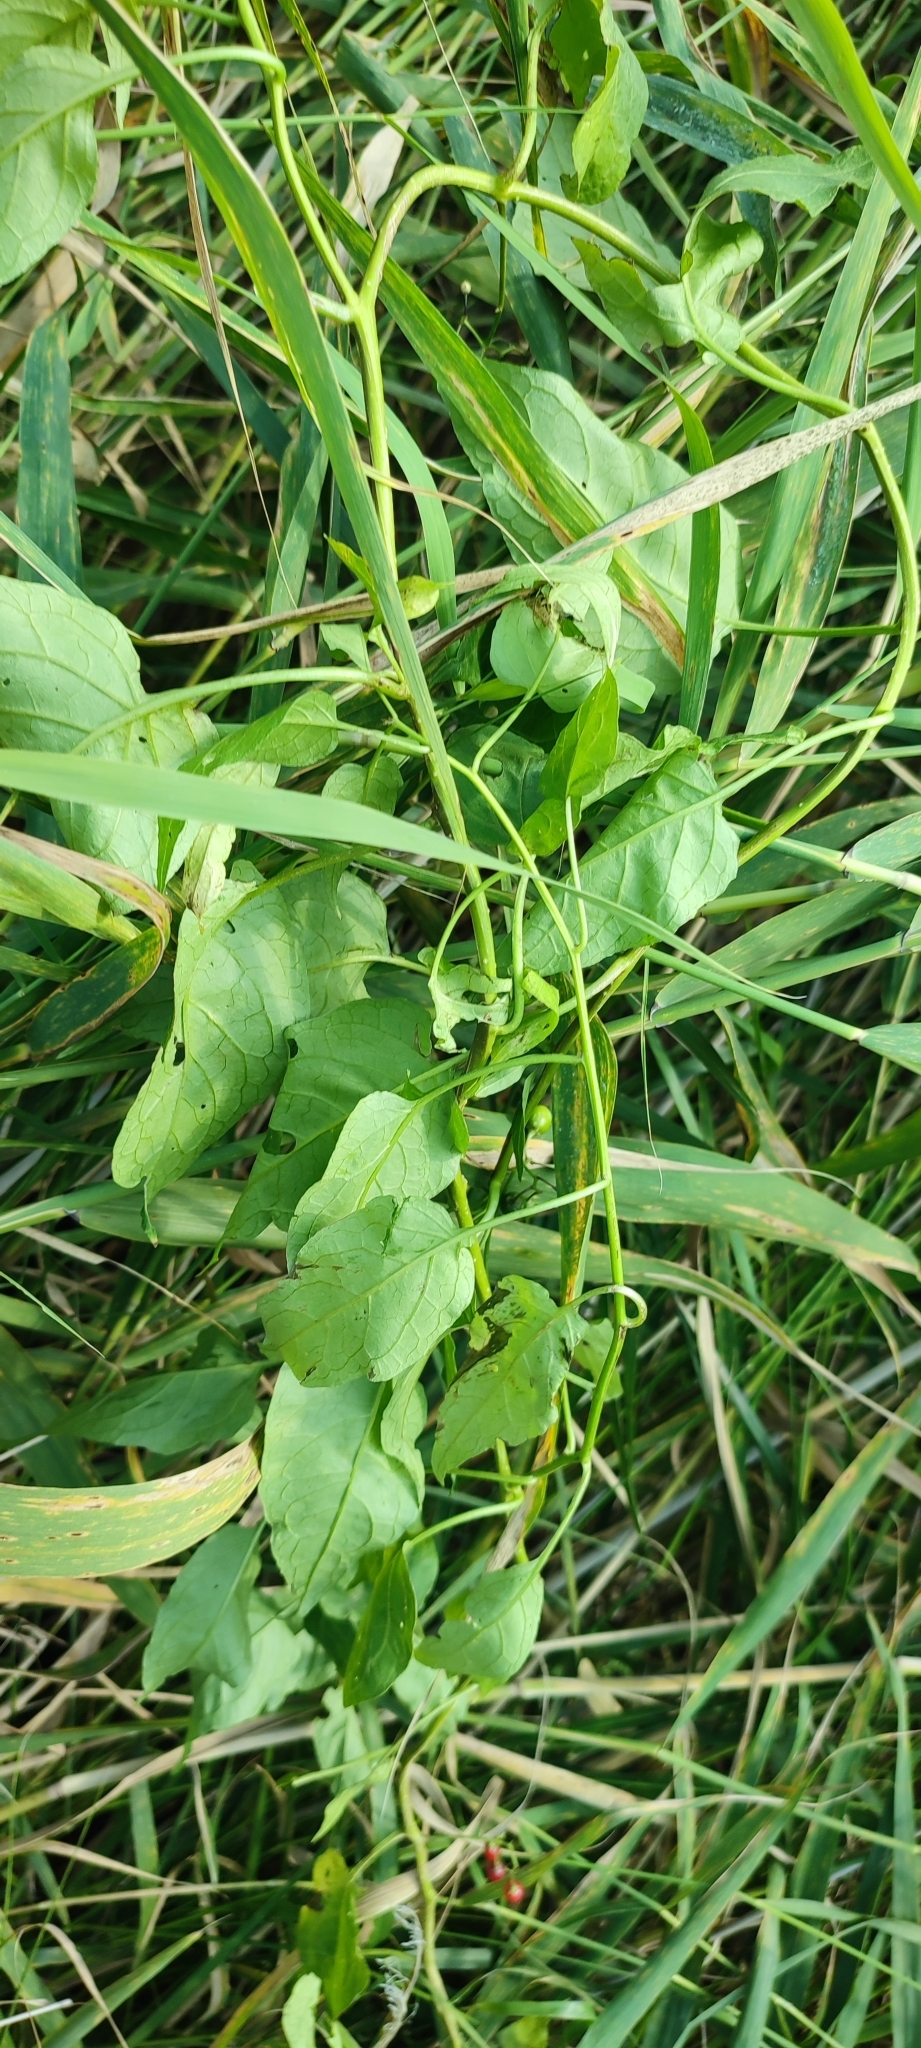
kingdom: Plantae
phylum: Tracheophyta
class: Magnoliopsida
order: Solanales
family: Solanaceae
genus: Solanum
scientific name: Solanum dulcamara
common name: Climbing nightshade
